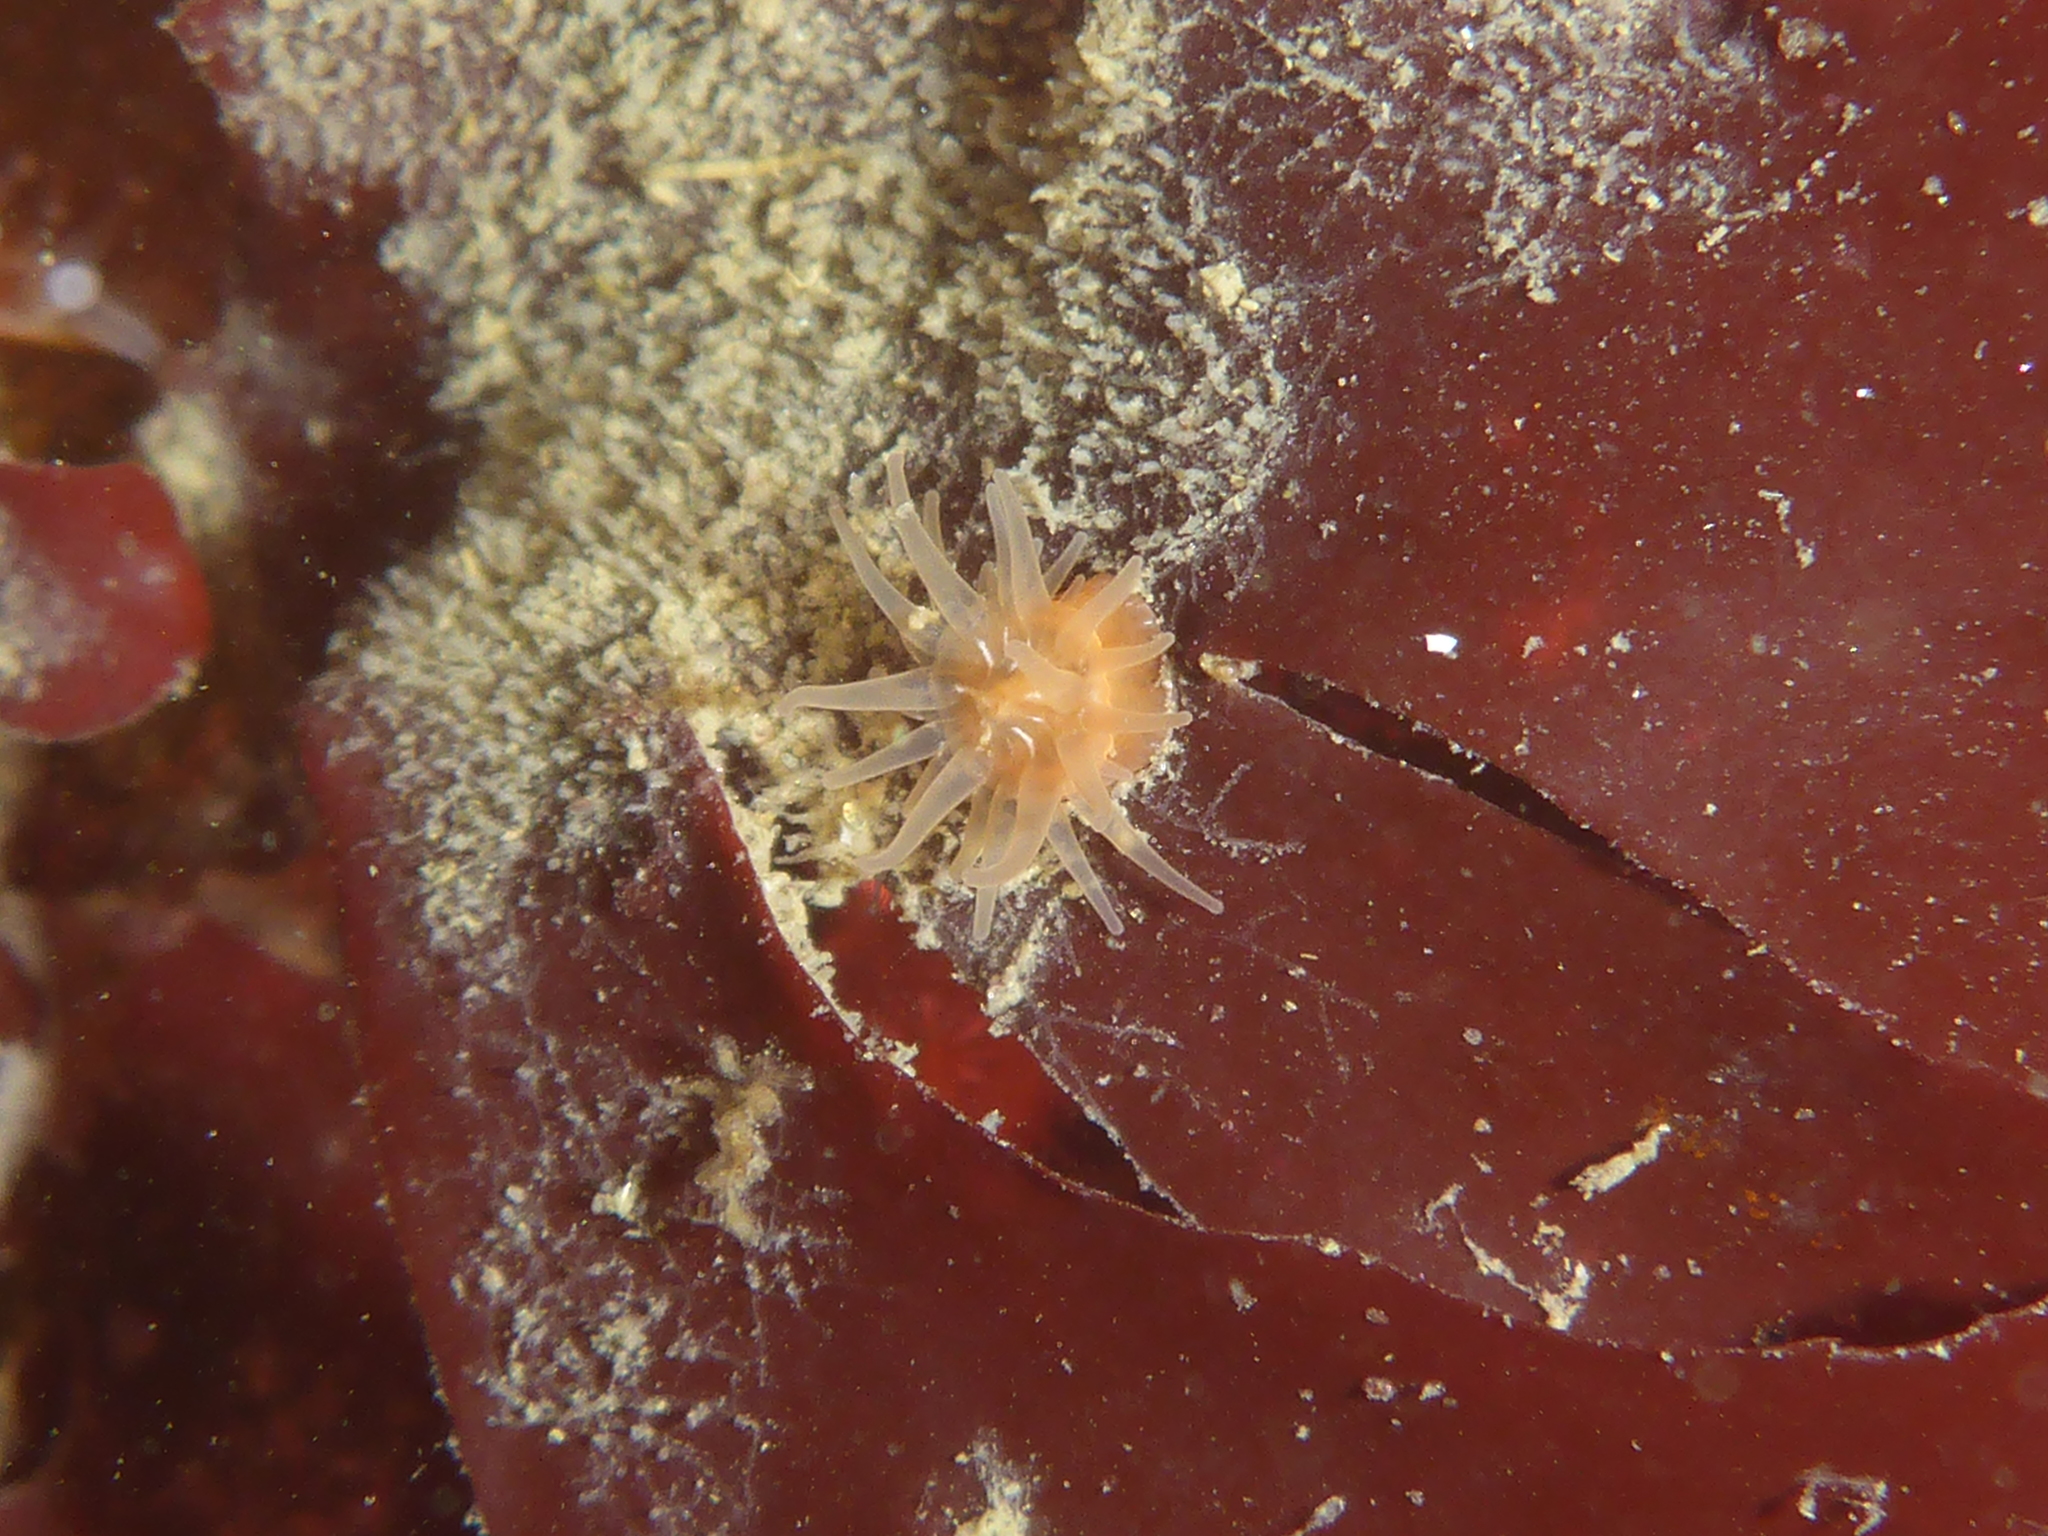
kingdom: Animalia
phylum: Cnidaria
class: Anthozoa
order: Actiniaria
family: Actiniidae
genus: Epiactis
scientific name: Epiactis prolifera
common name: Brooding anemone
